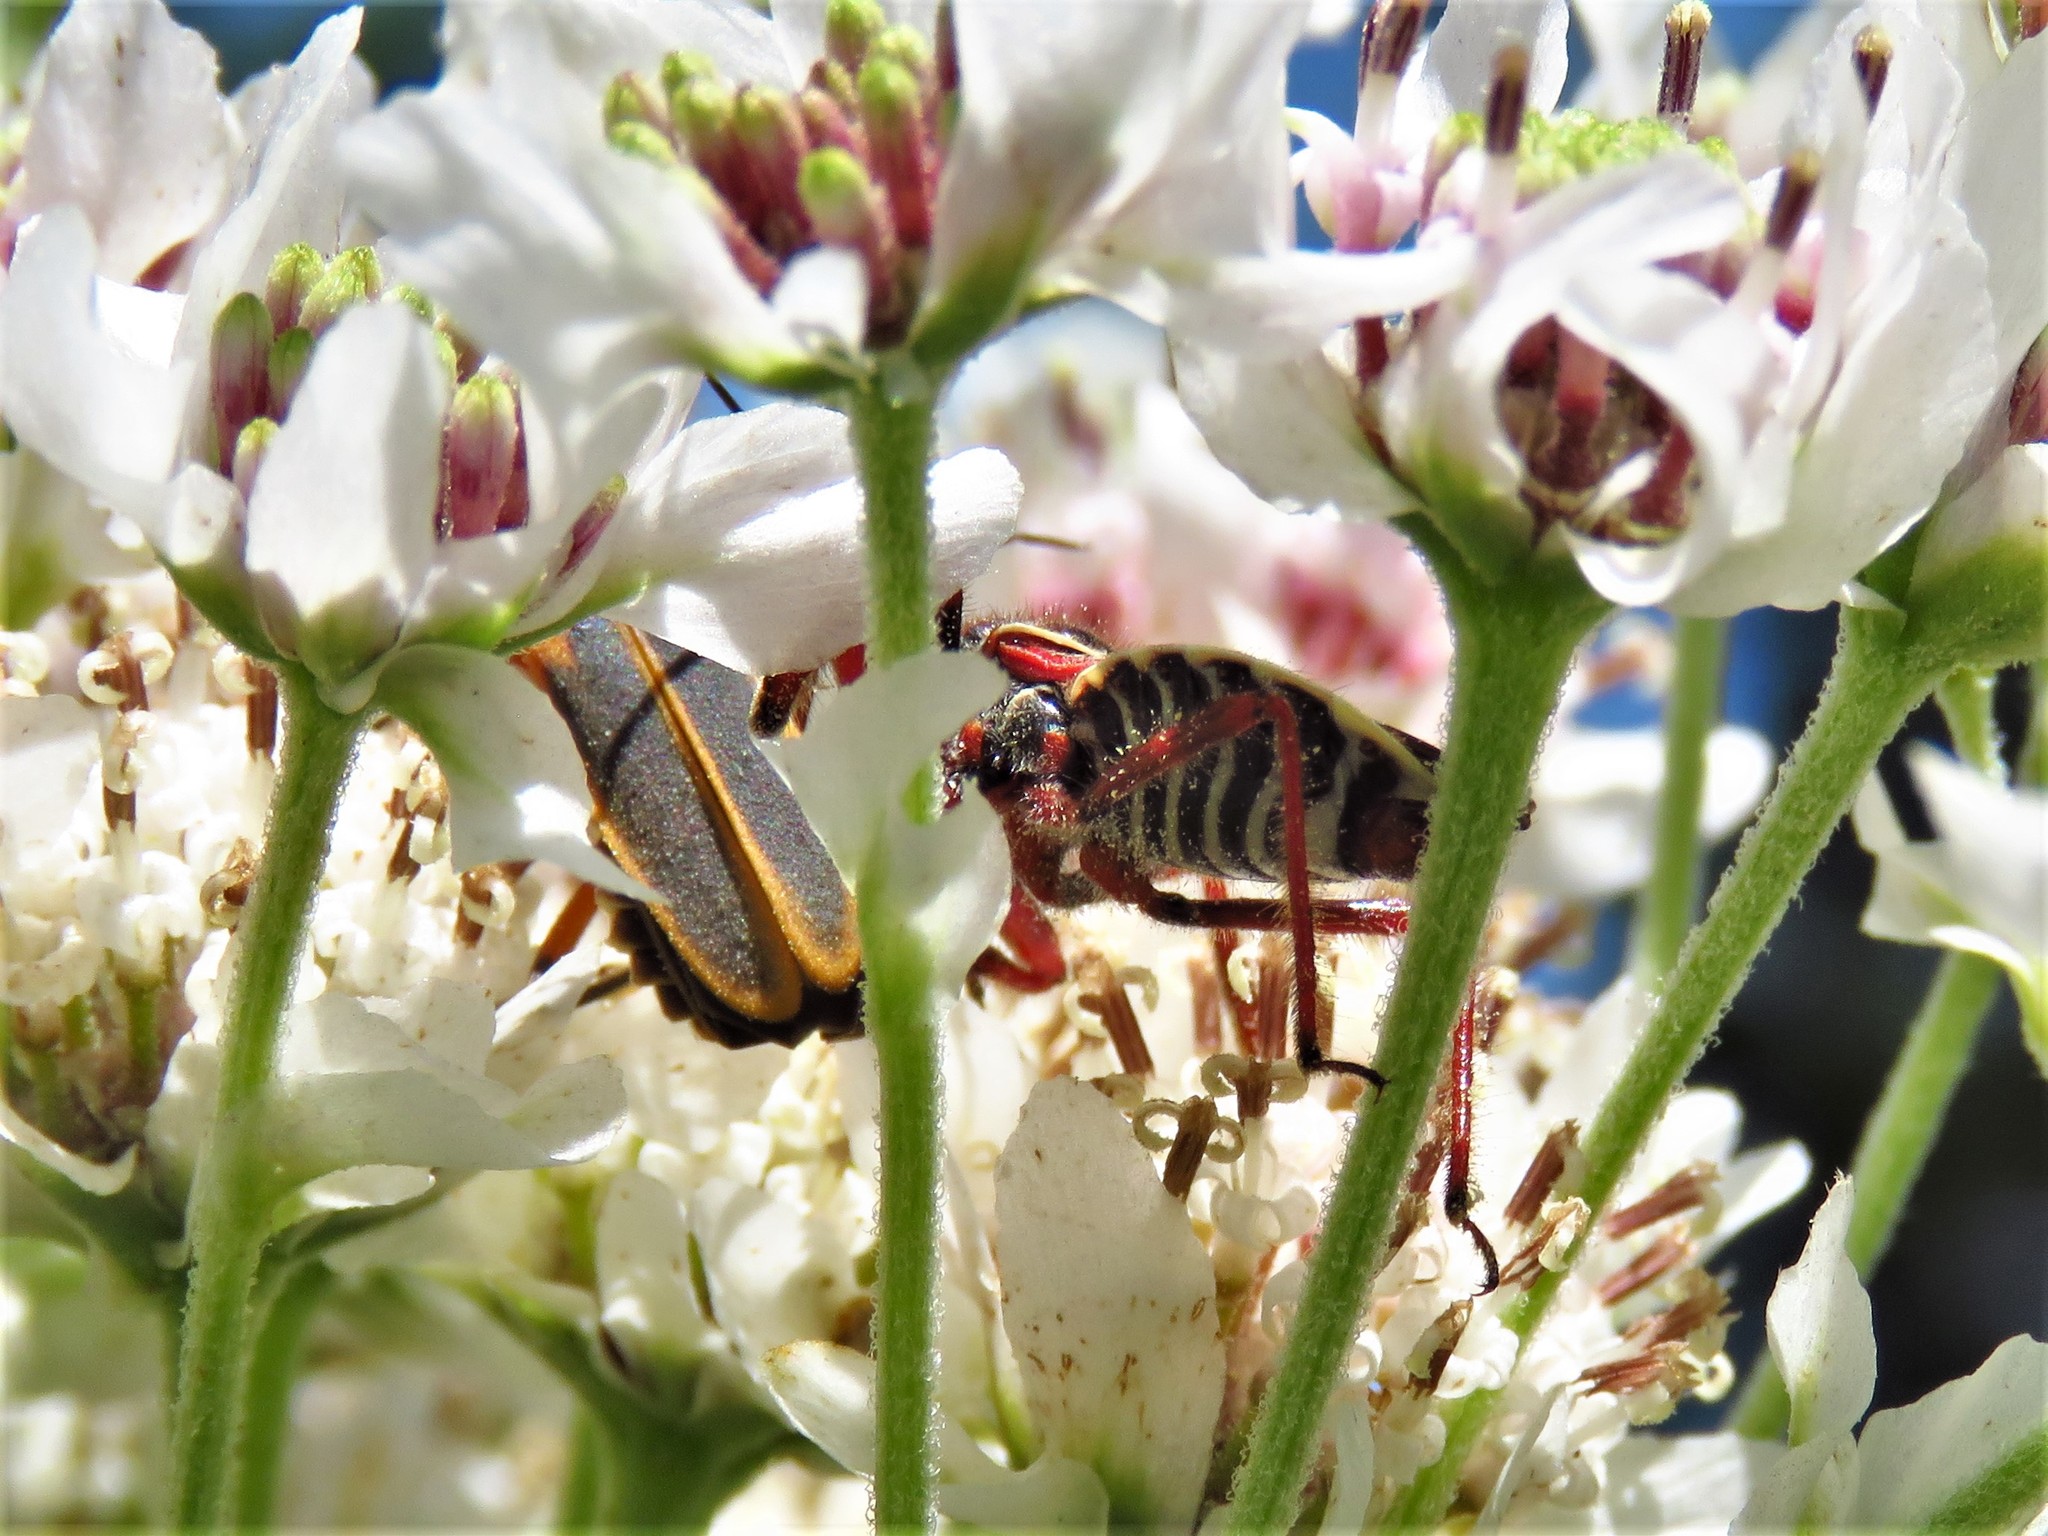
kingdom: Animalia
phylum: Arthropoda
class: Insecta
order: Hemiptera
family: Reduviidae
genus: Apiomerus
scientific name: Apiomerus spissipes
